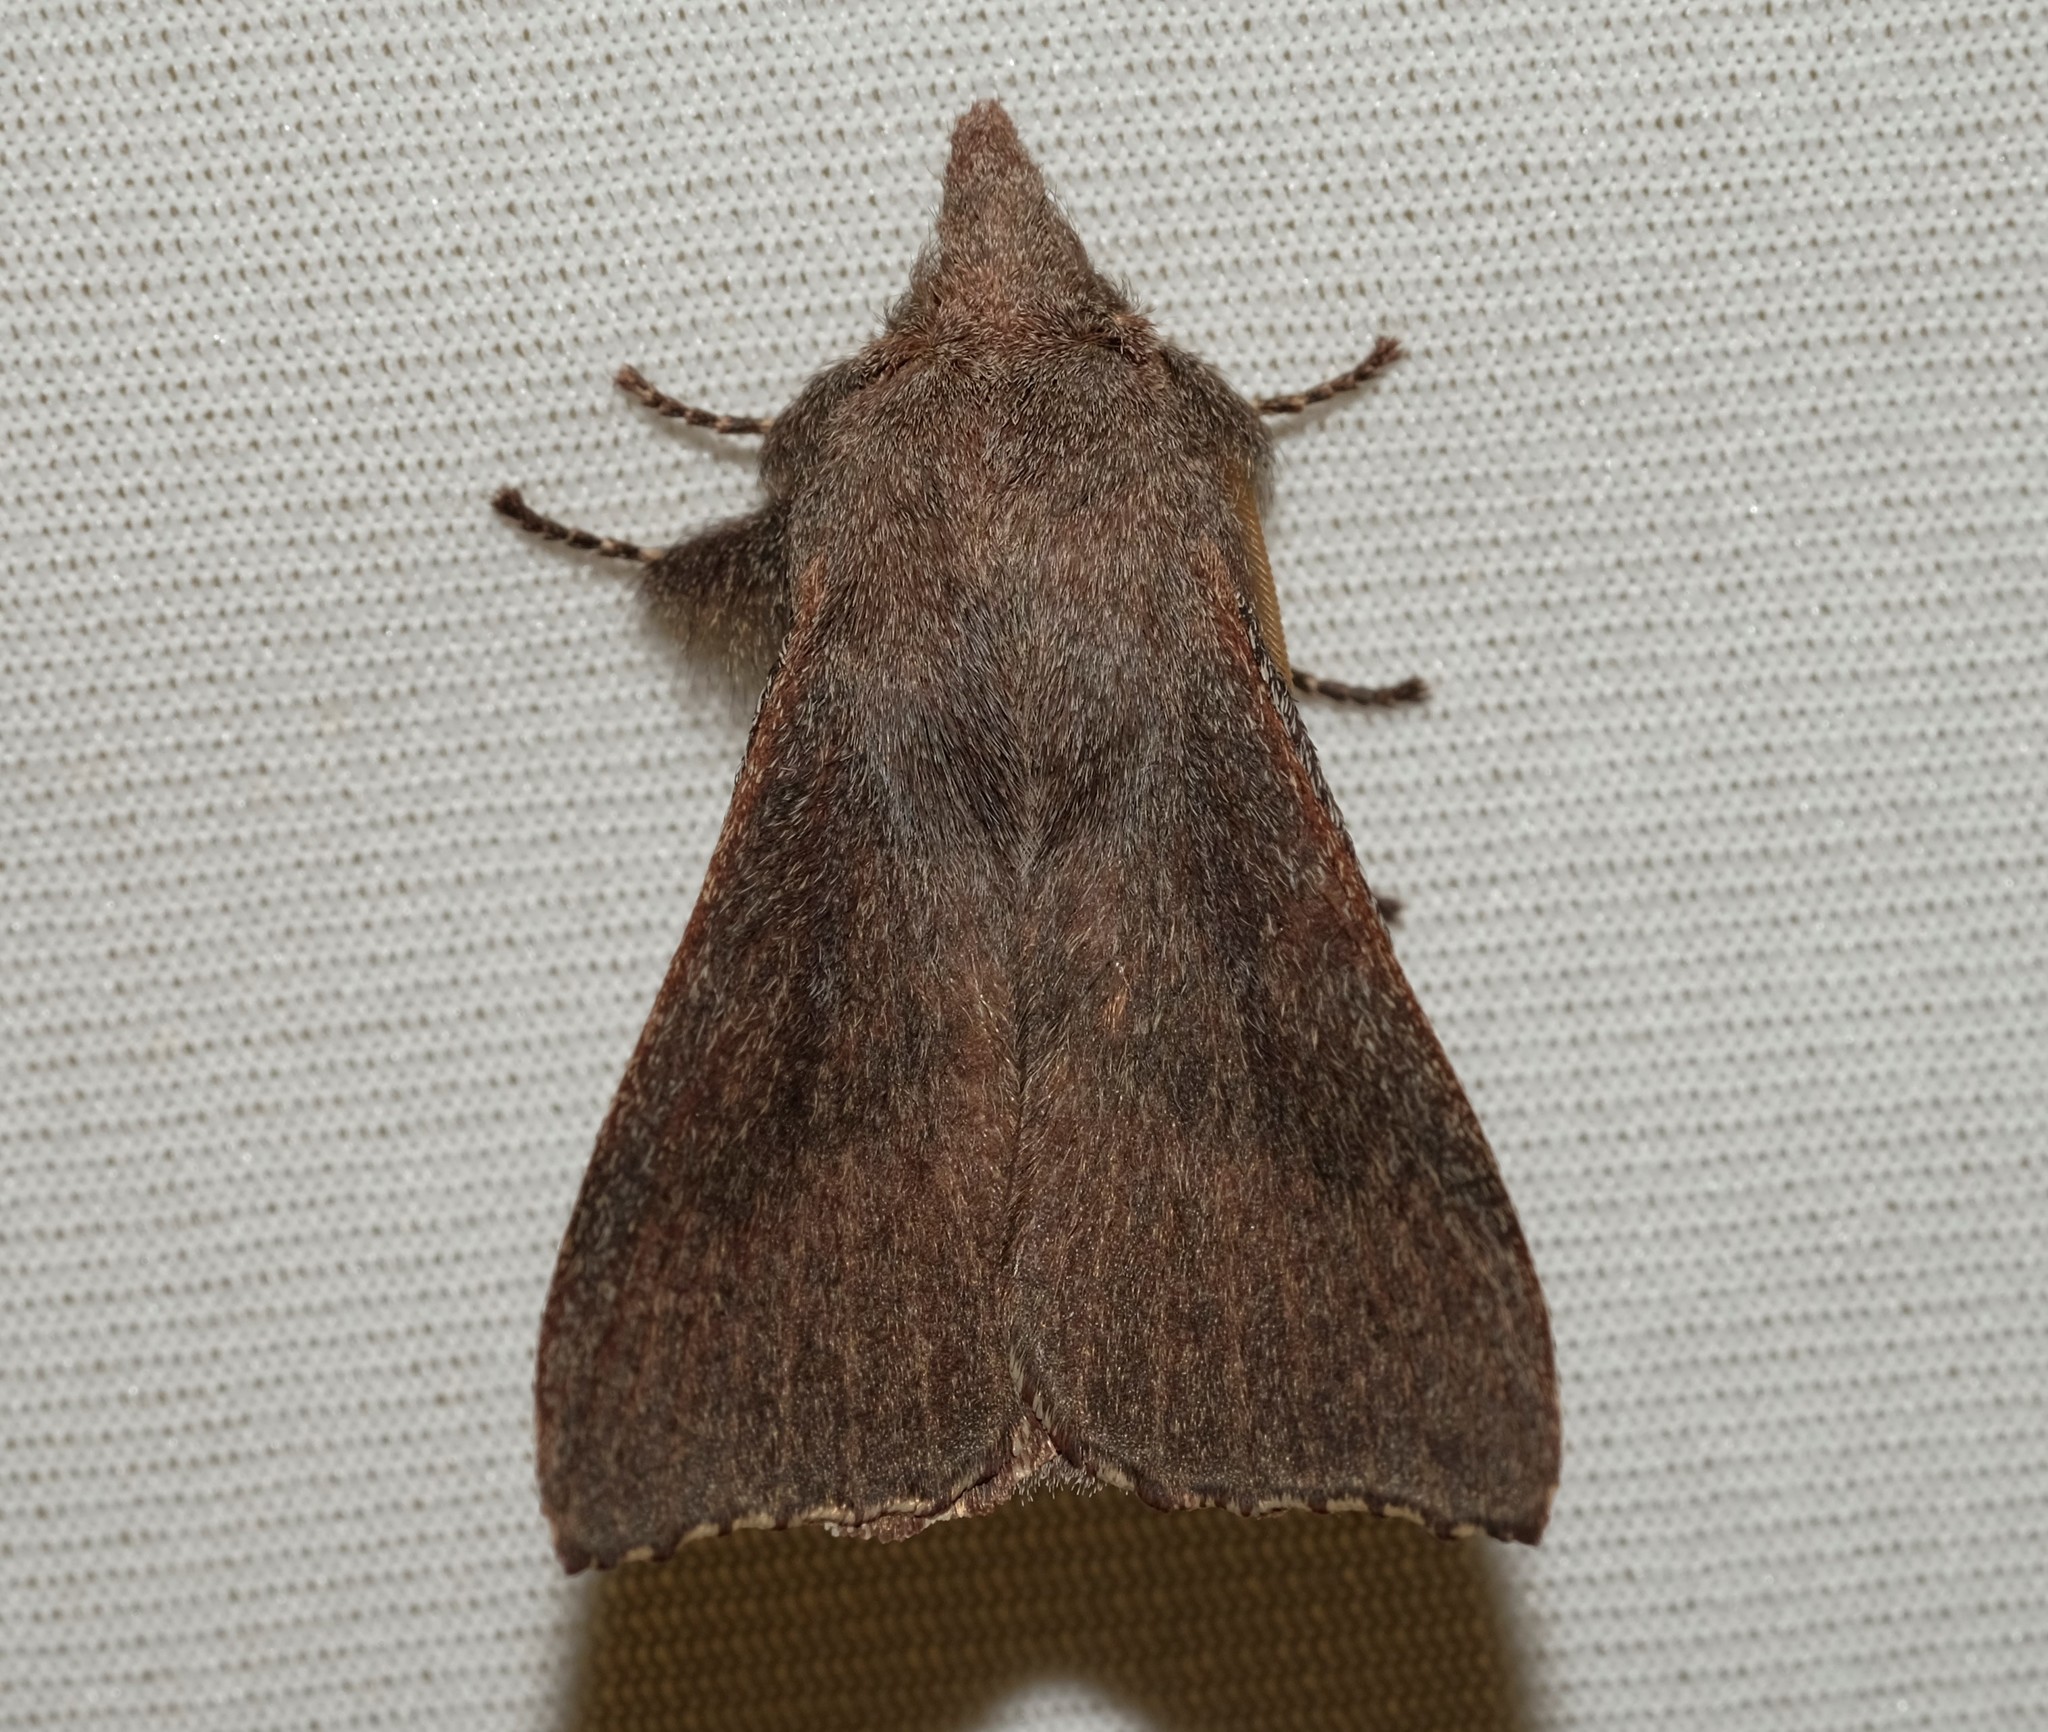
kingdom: Animalia
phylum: Arthropoda
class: Insecta
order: Lepidoptera
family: Lasiocampidae
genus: Pararguda
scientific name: Pararguda rufescens
